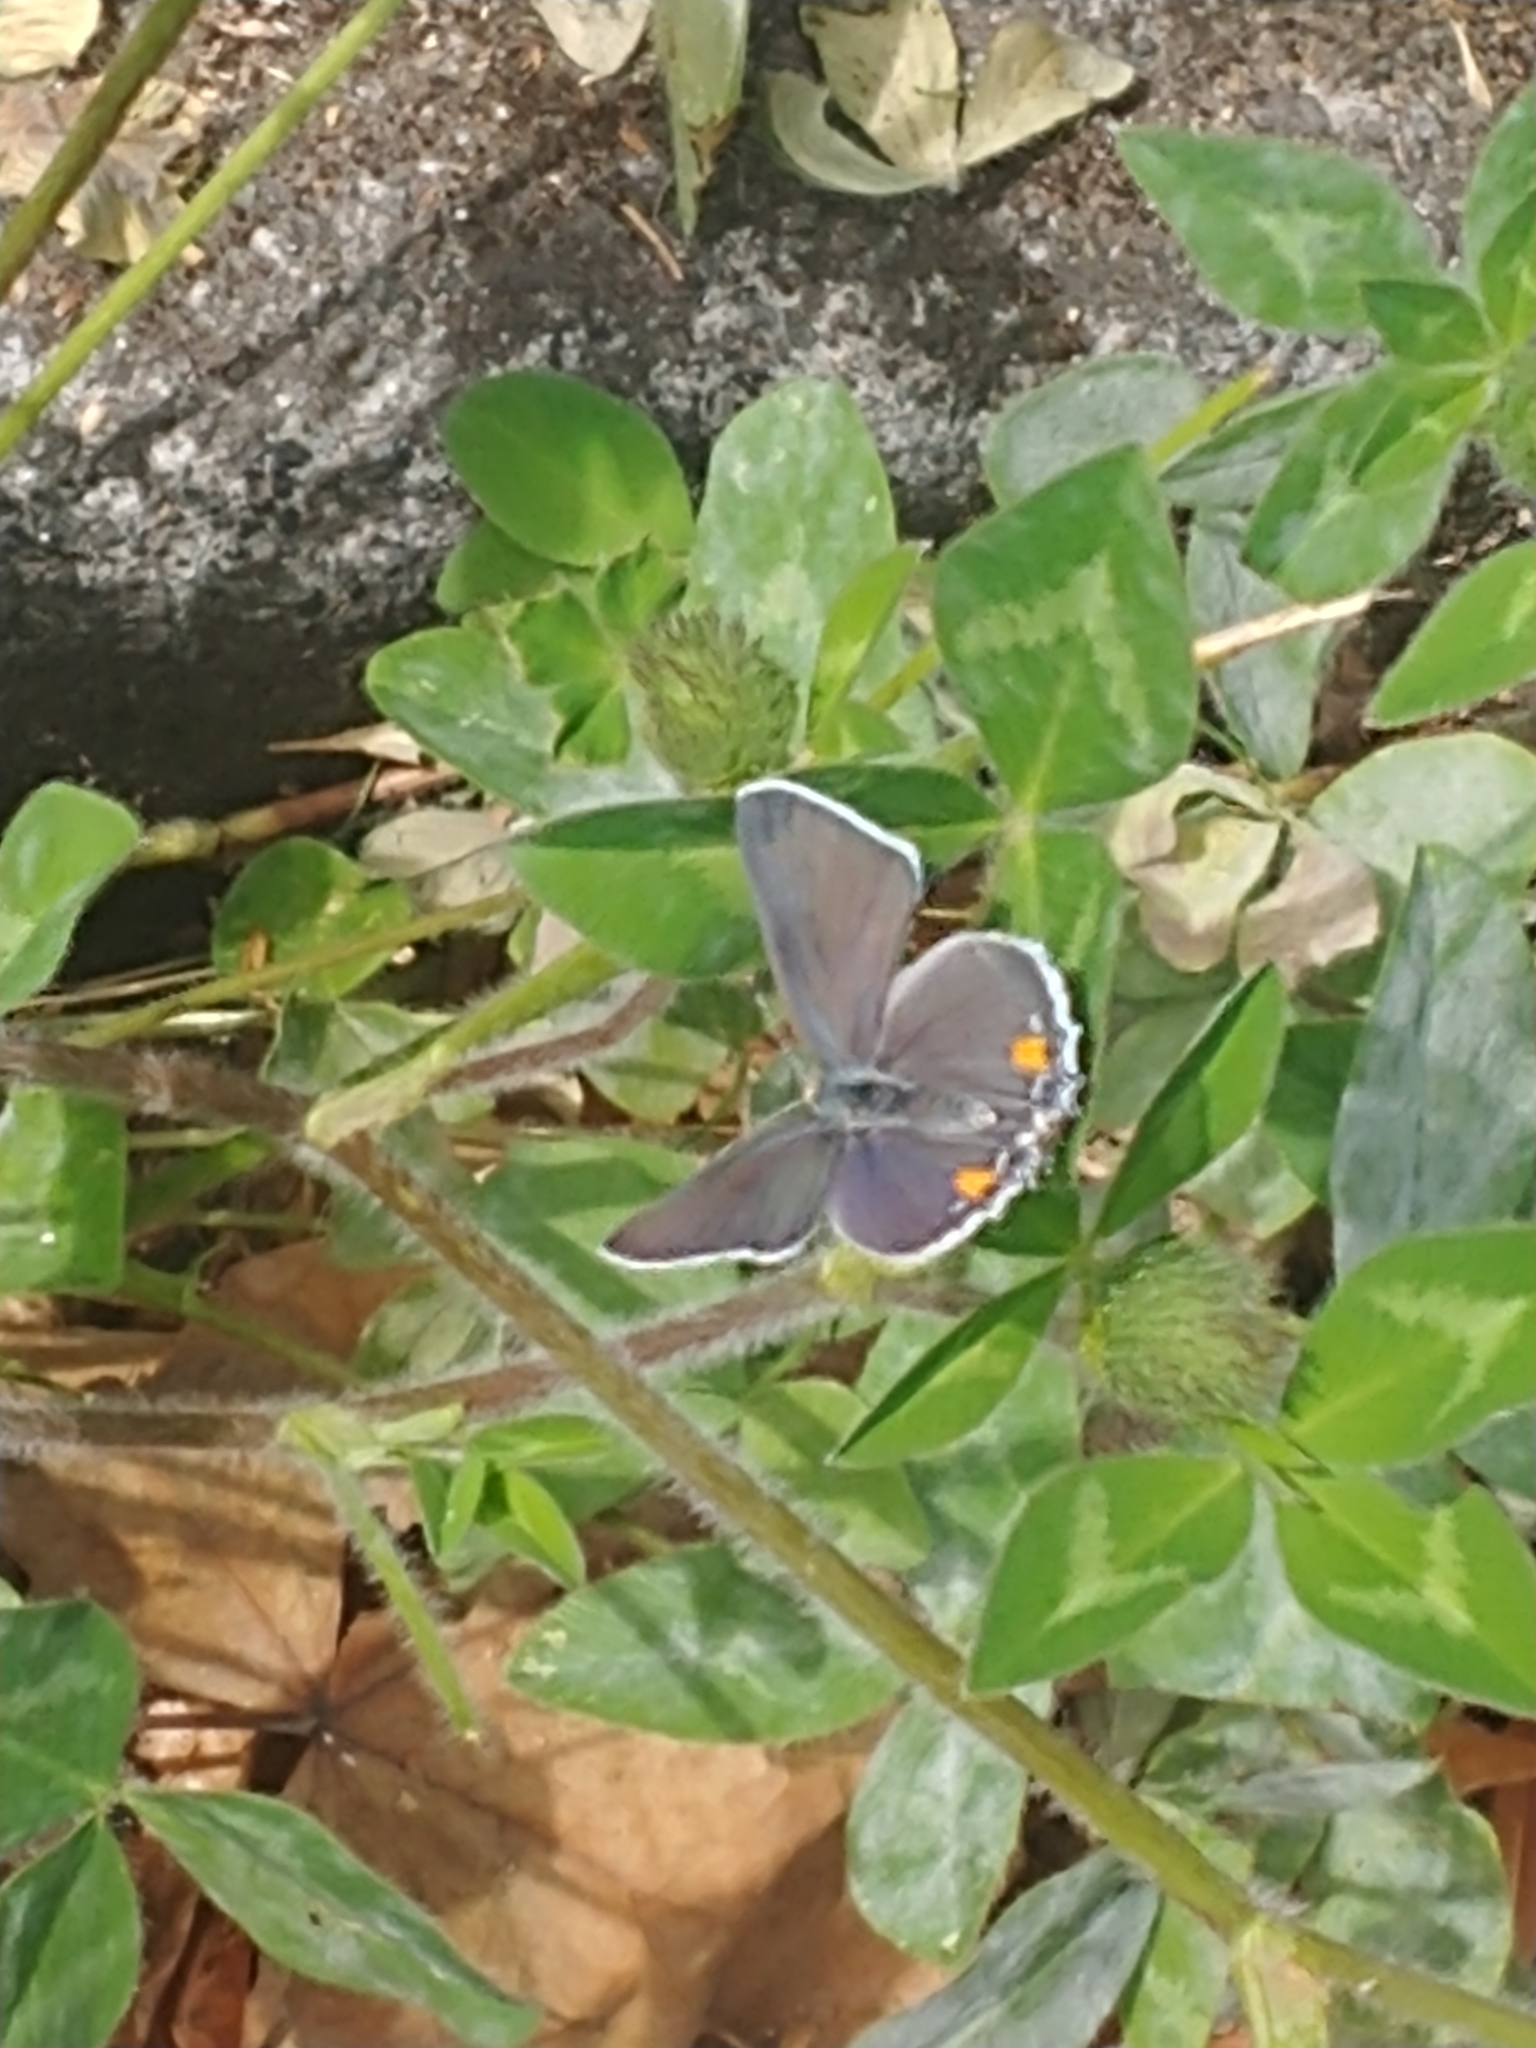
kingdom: Animalia
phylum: Arthropoda
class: Insecta
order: Lepidoptera
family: Lycaenidae
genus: Strymon
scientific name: Strymon melinus
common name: Gray hairstreak
